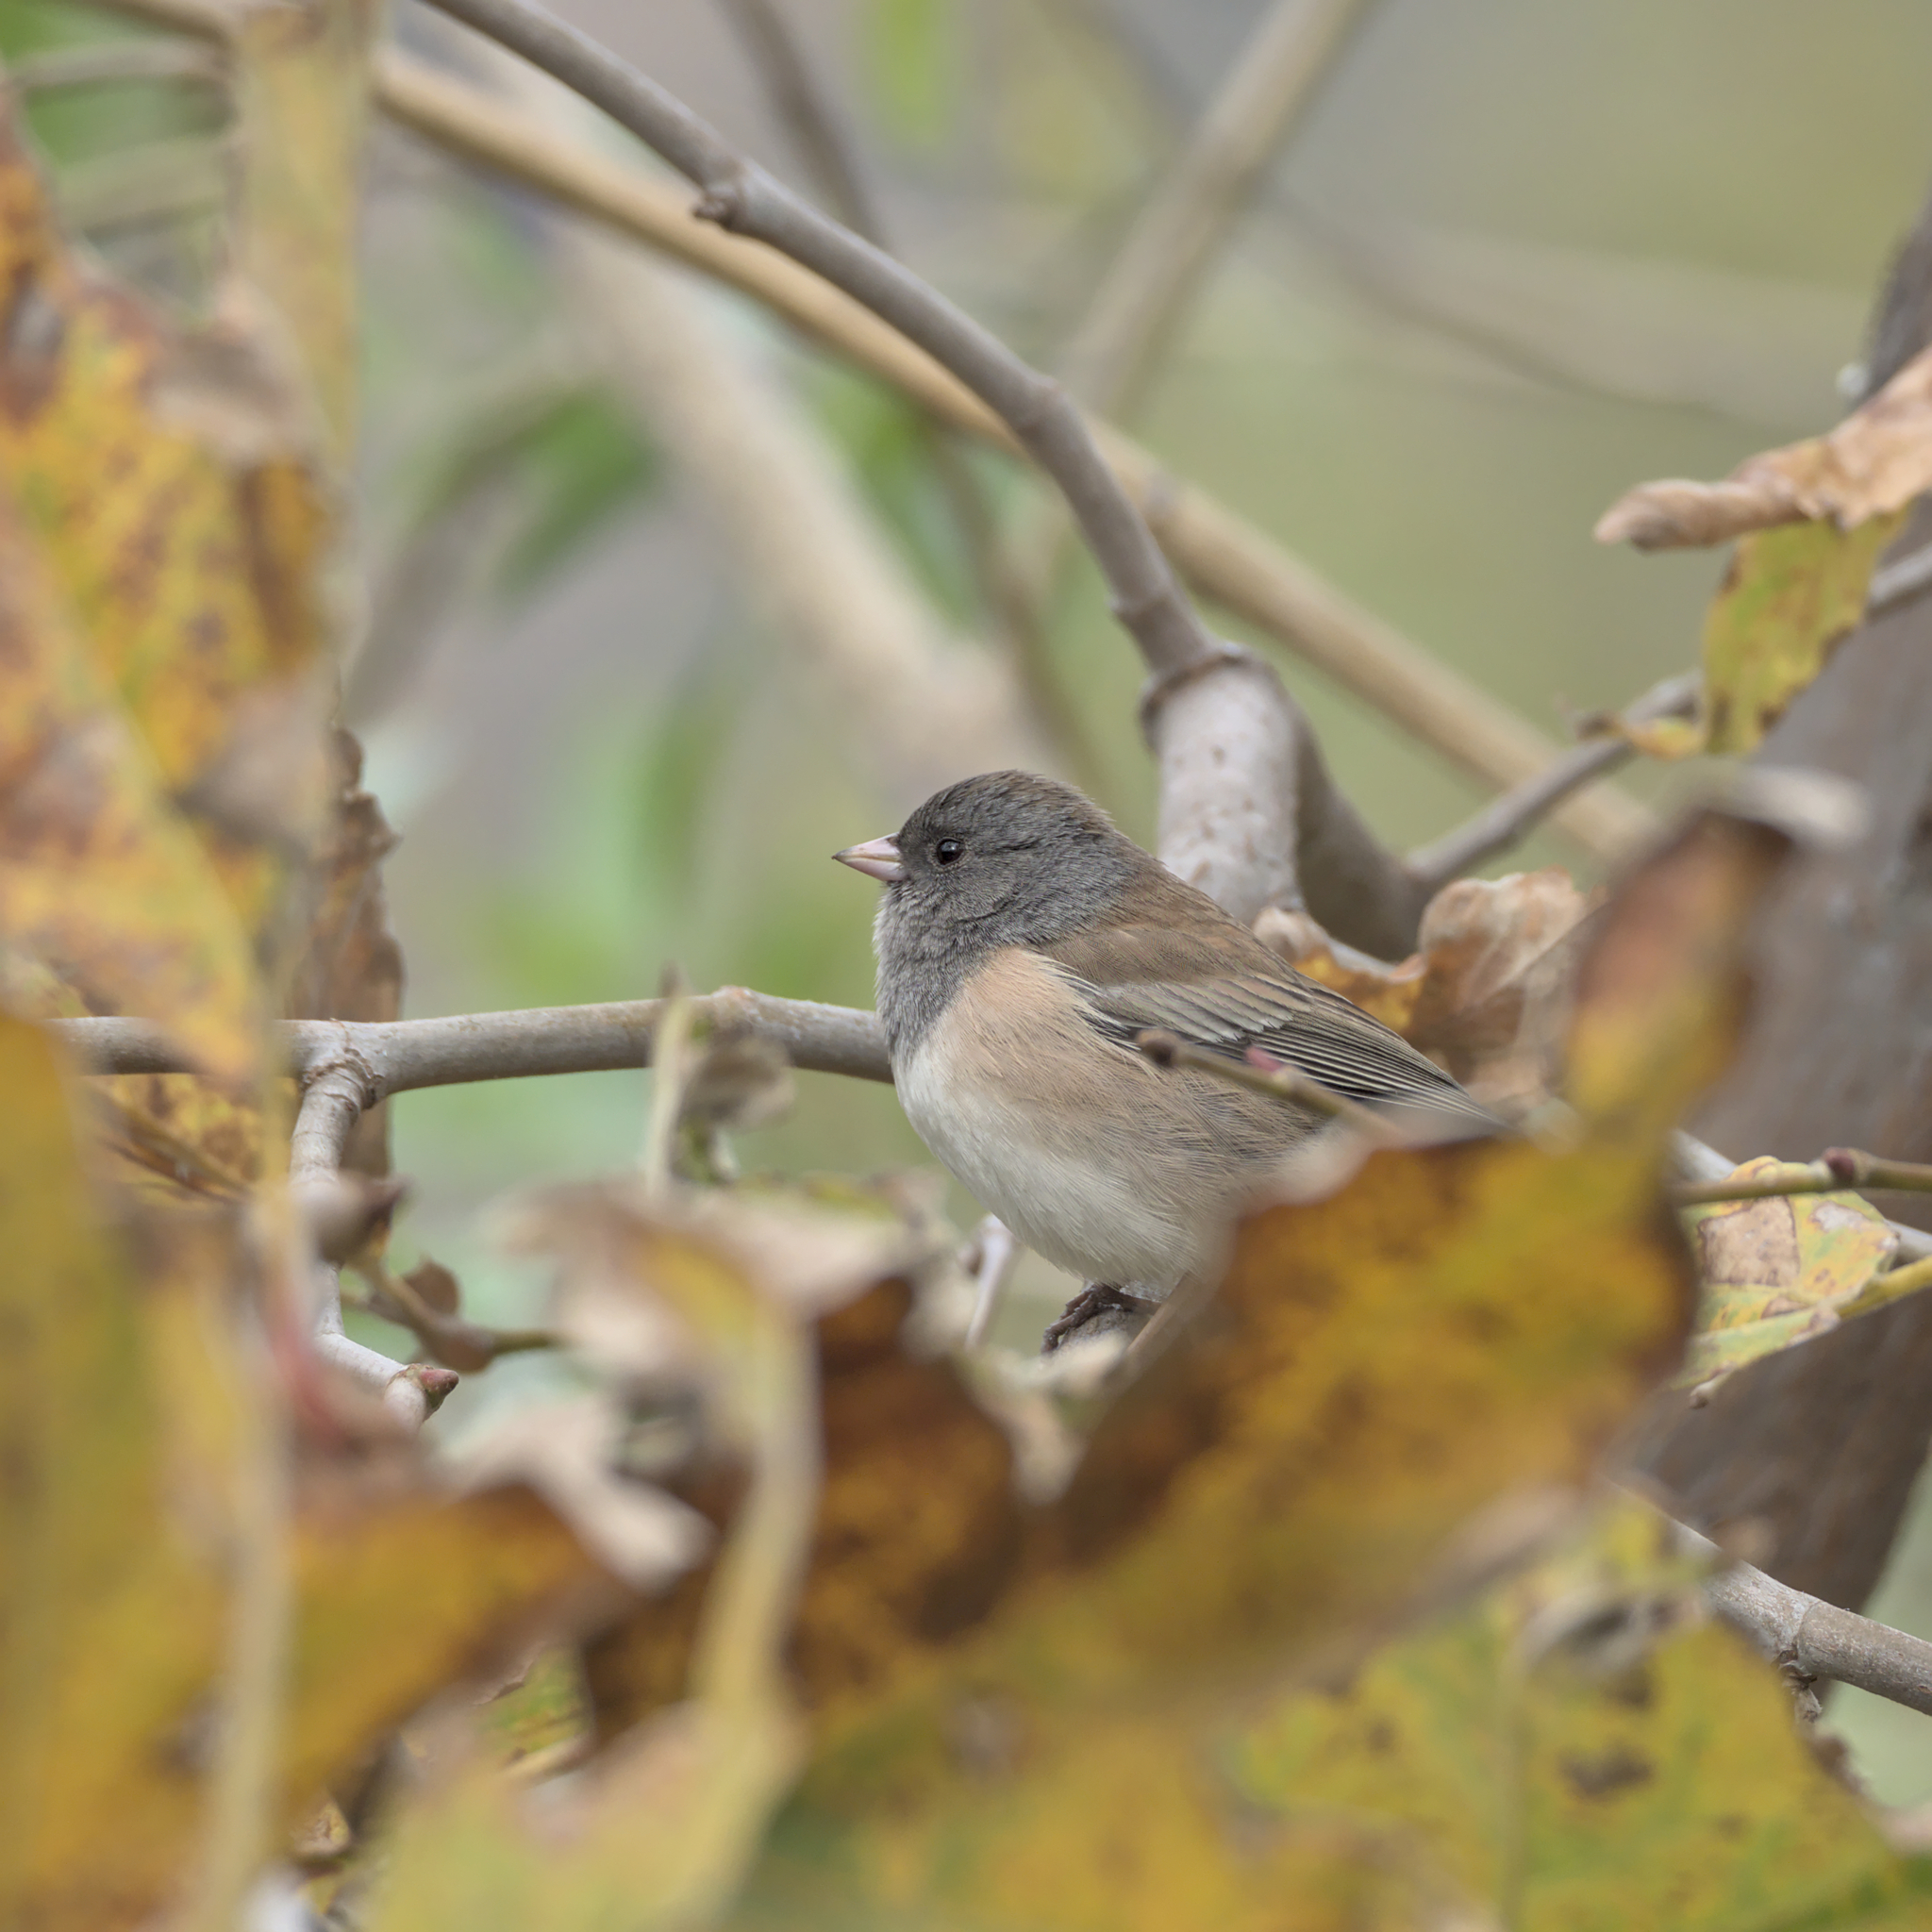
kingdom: Animalia
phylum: Chordata
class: Aves
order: Passeriformes
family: Passerellidae
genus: Junco
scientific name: Junco hyemalis
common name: Dark-eyed junco
